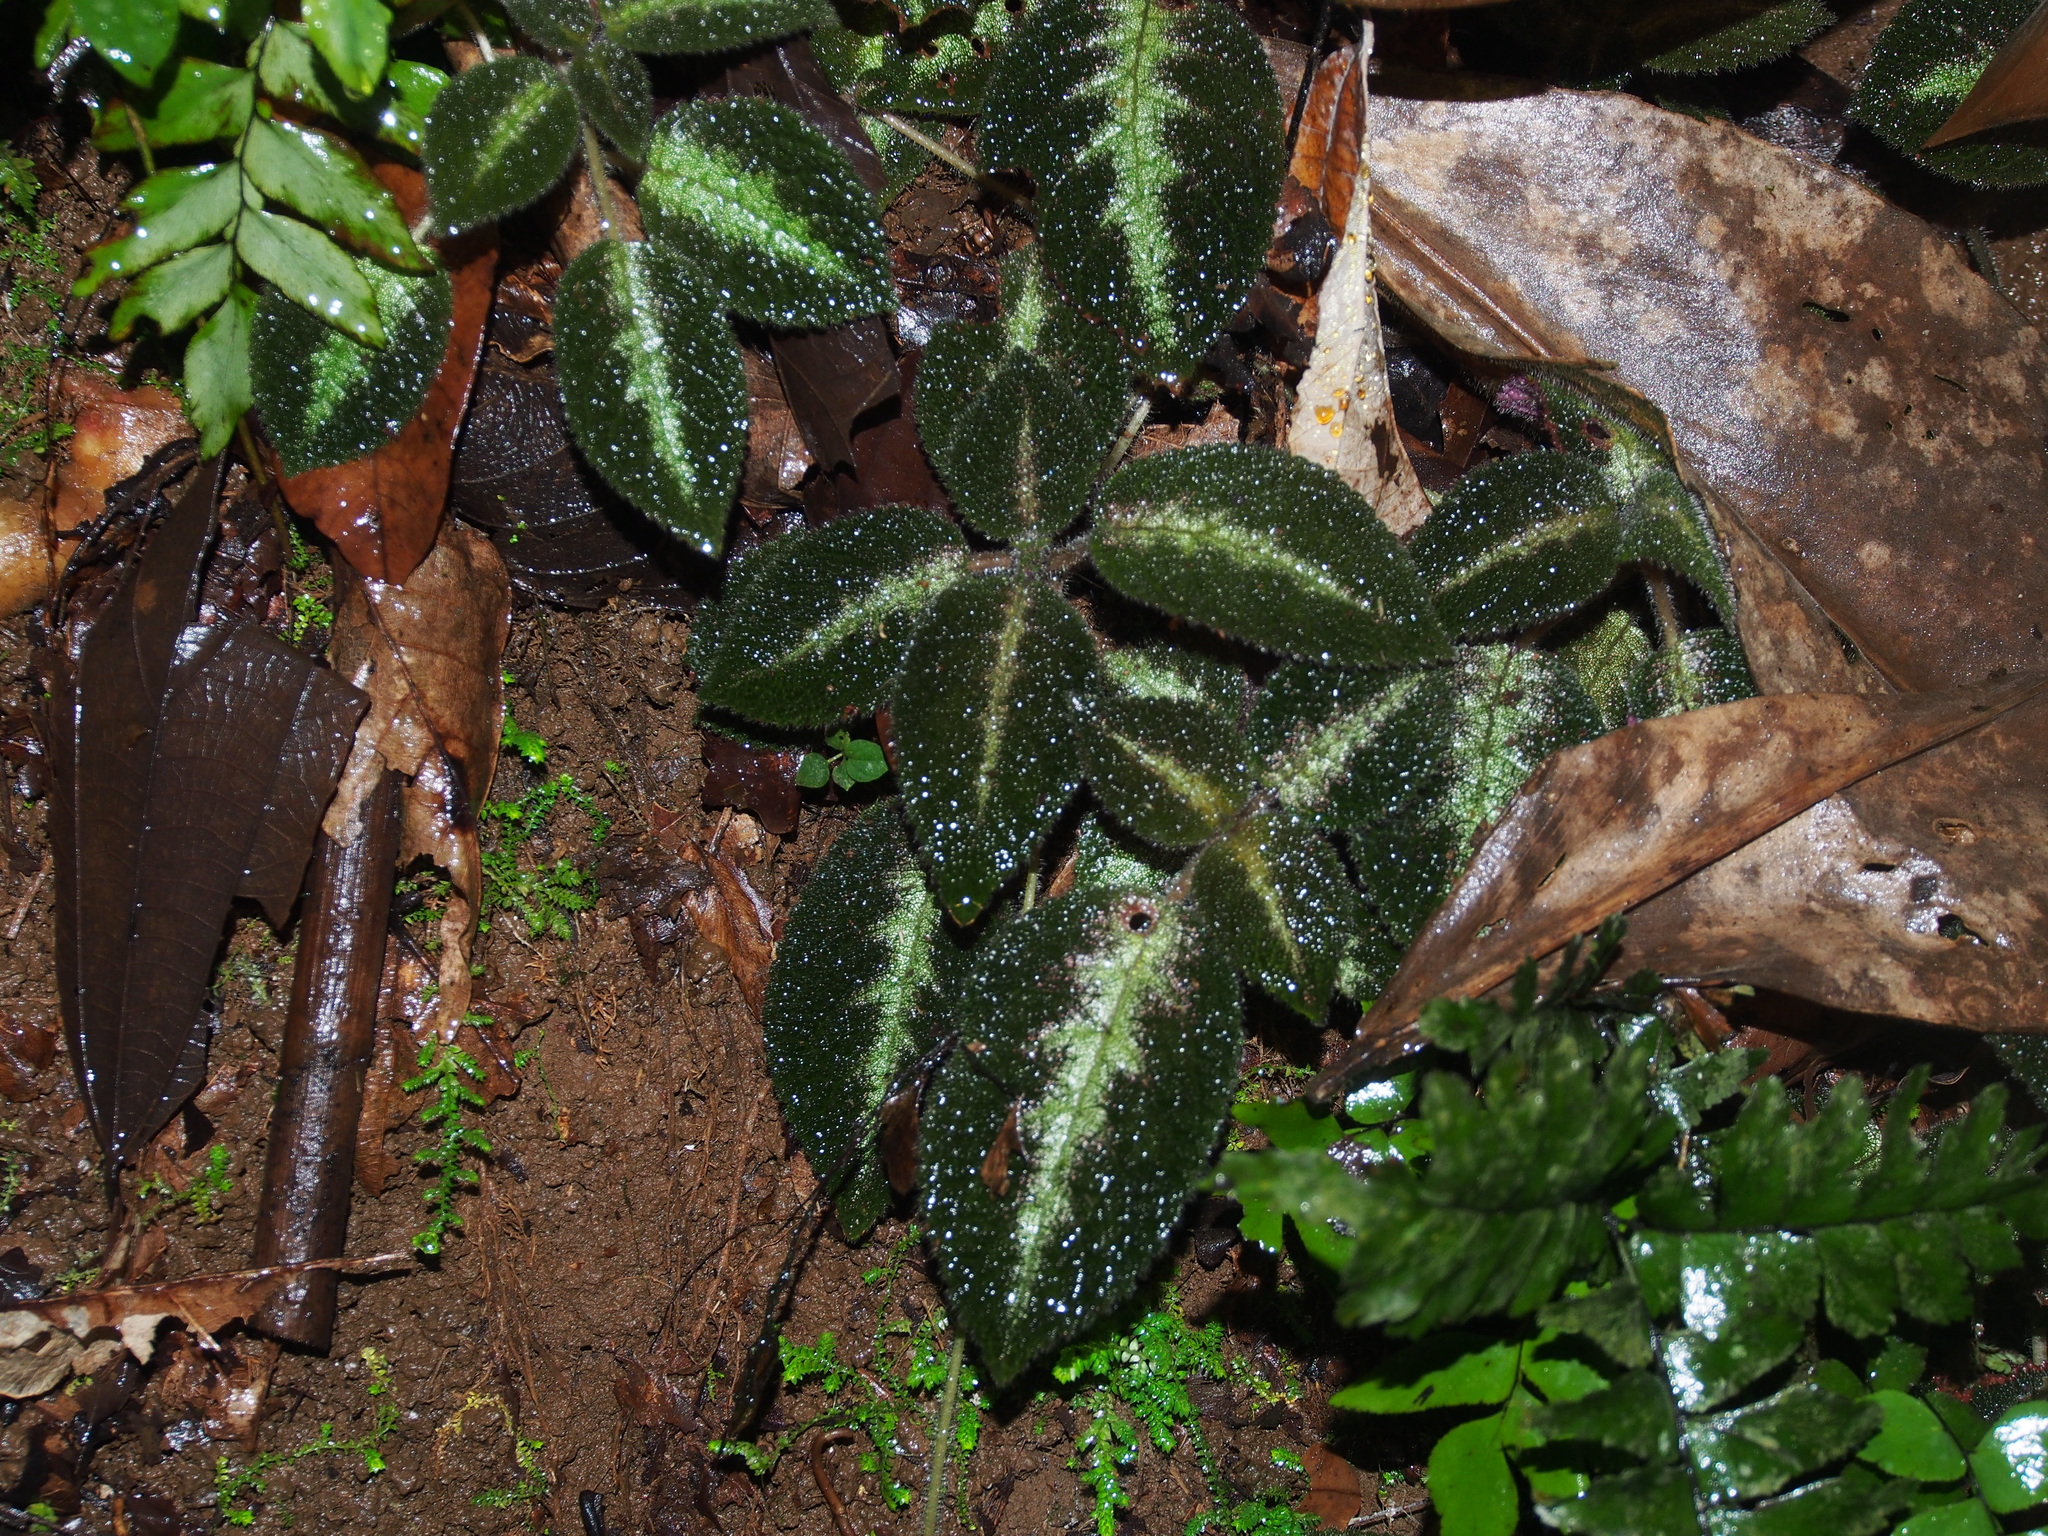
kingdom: Plantae
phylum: Tracheophyta
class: Magnoliopsida
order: Lamiales
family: Gesneriaceae
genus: Episcia
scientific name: Episcia lilacina
